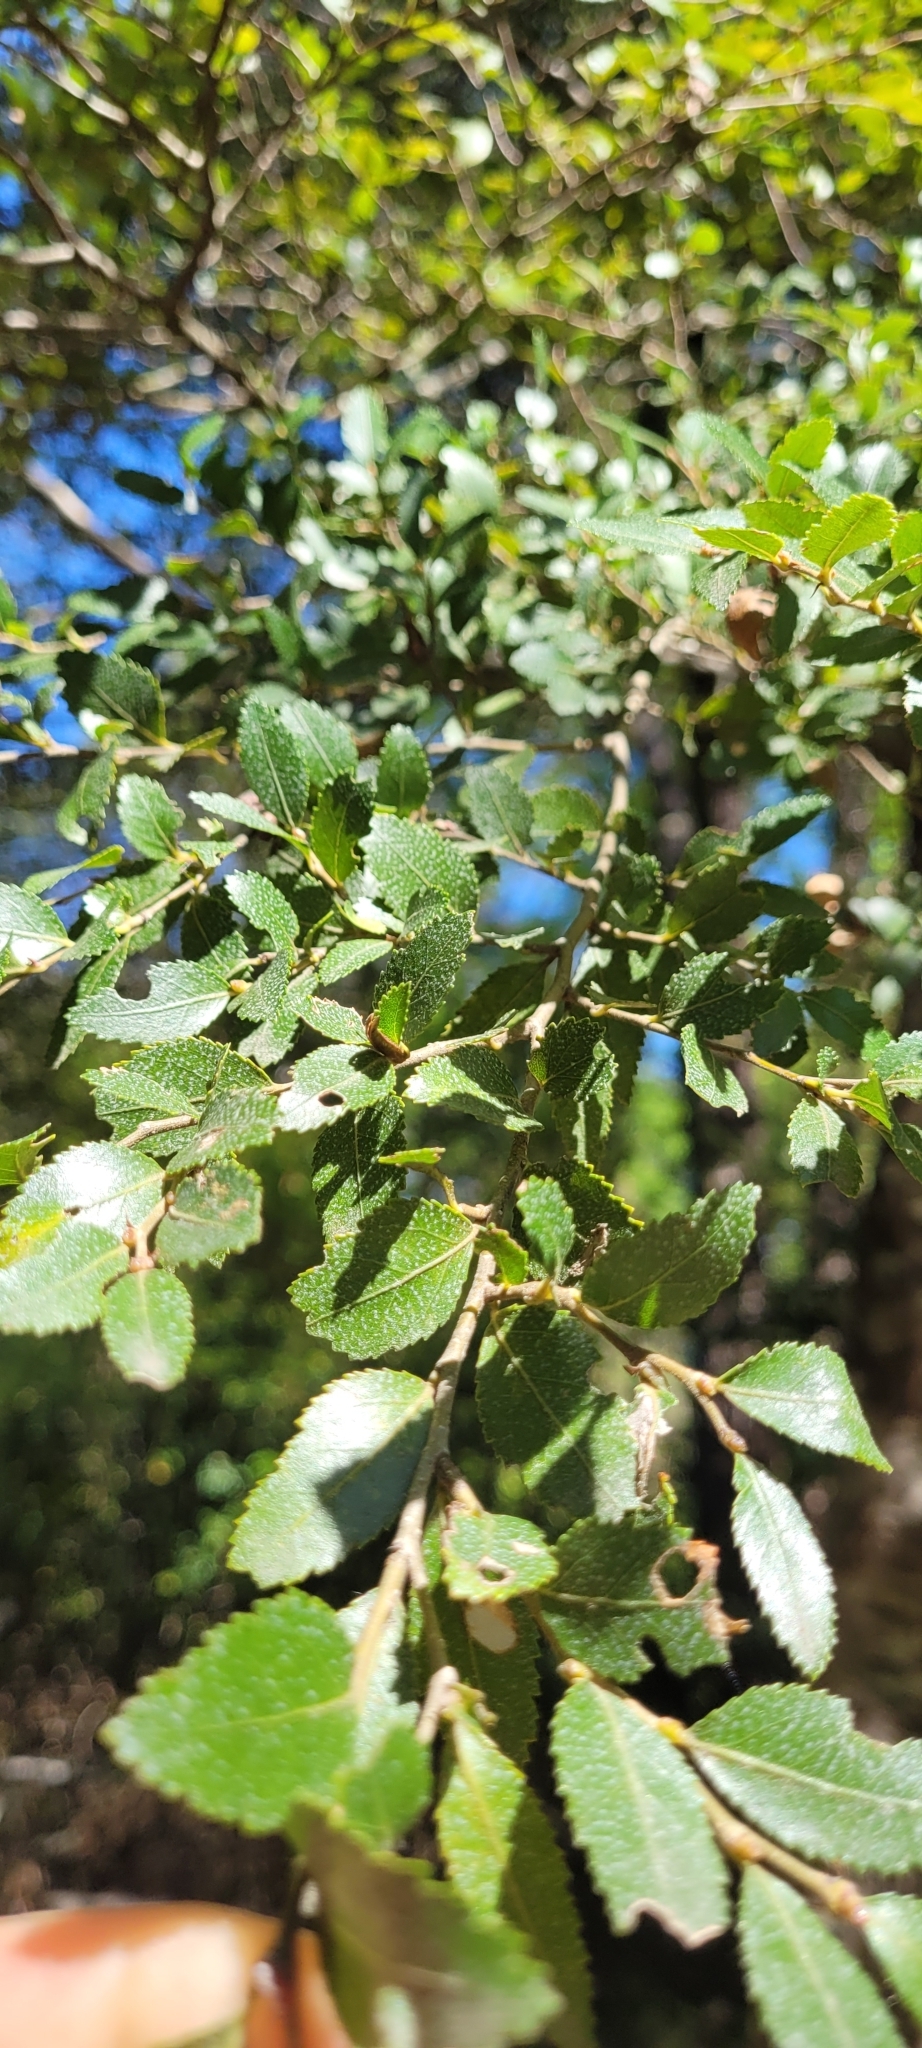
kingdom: Plantae
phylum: Tracheophyta
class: Magnoliopsida
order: Fagales
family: Nothofagaceae
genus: Nothofagus
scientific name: Nothofagus dombeyi
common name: Coigue
